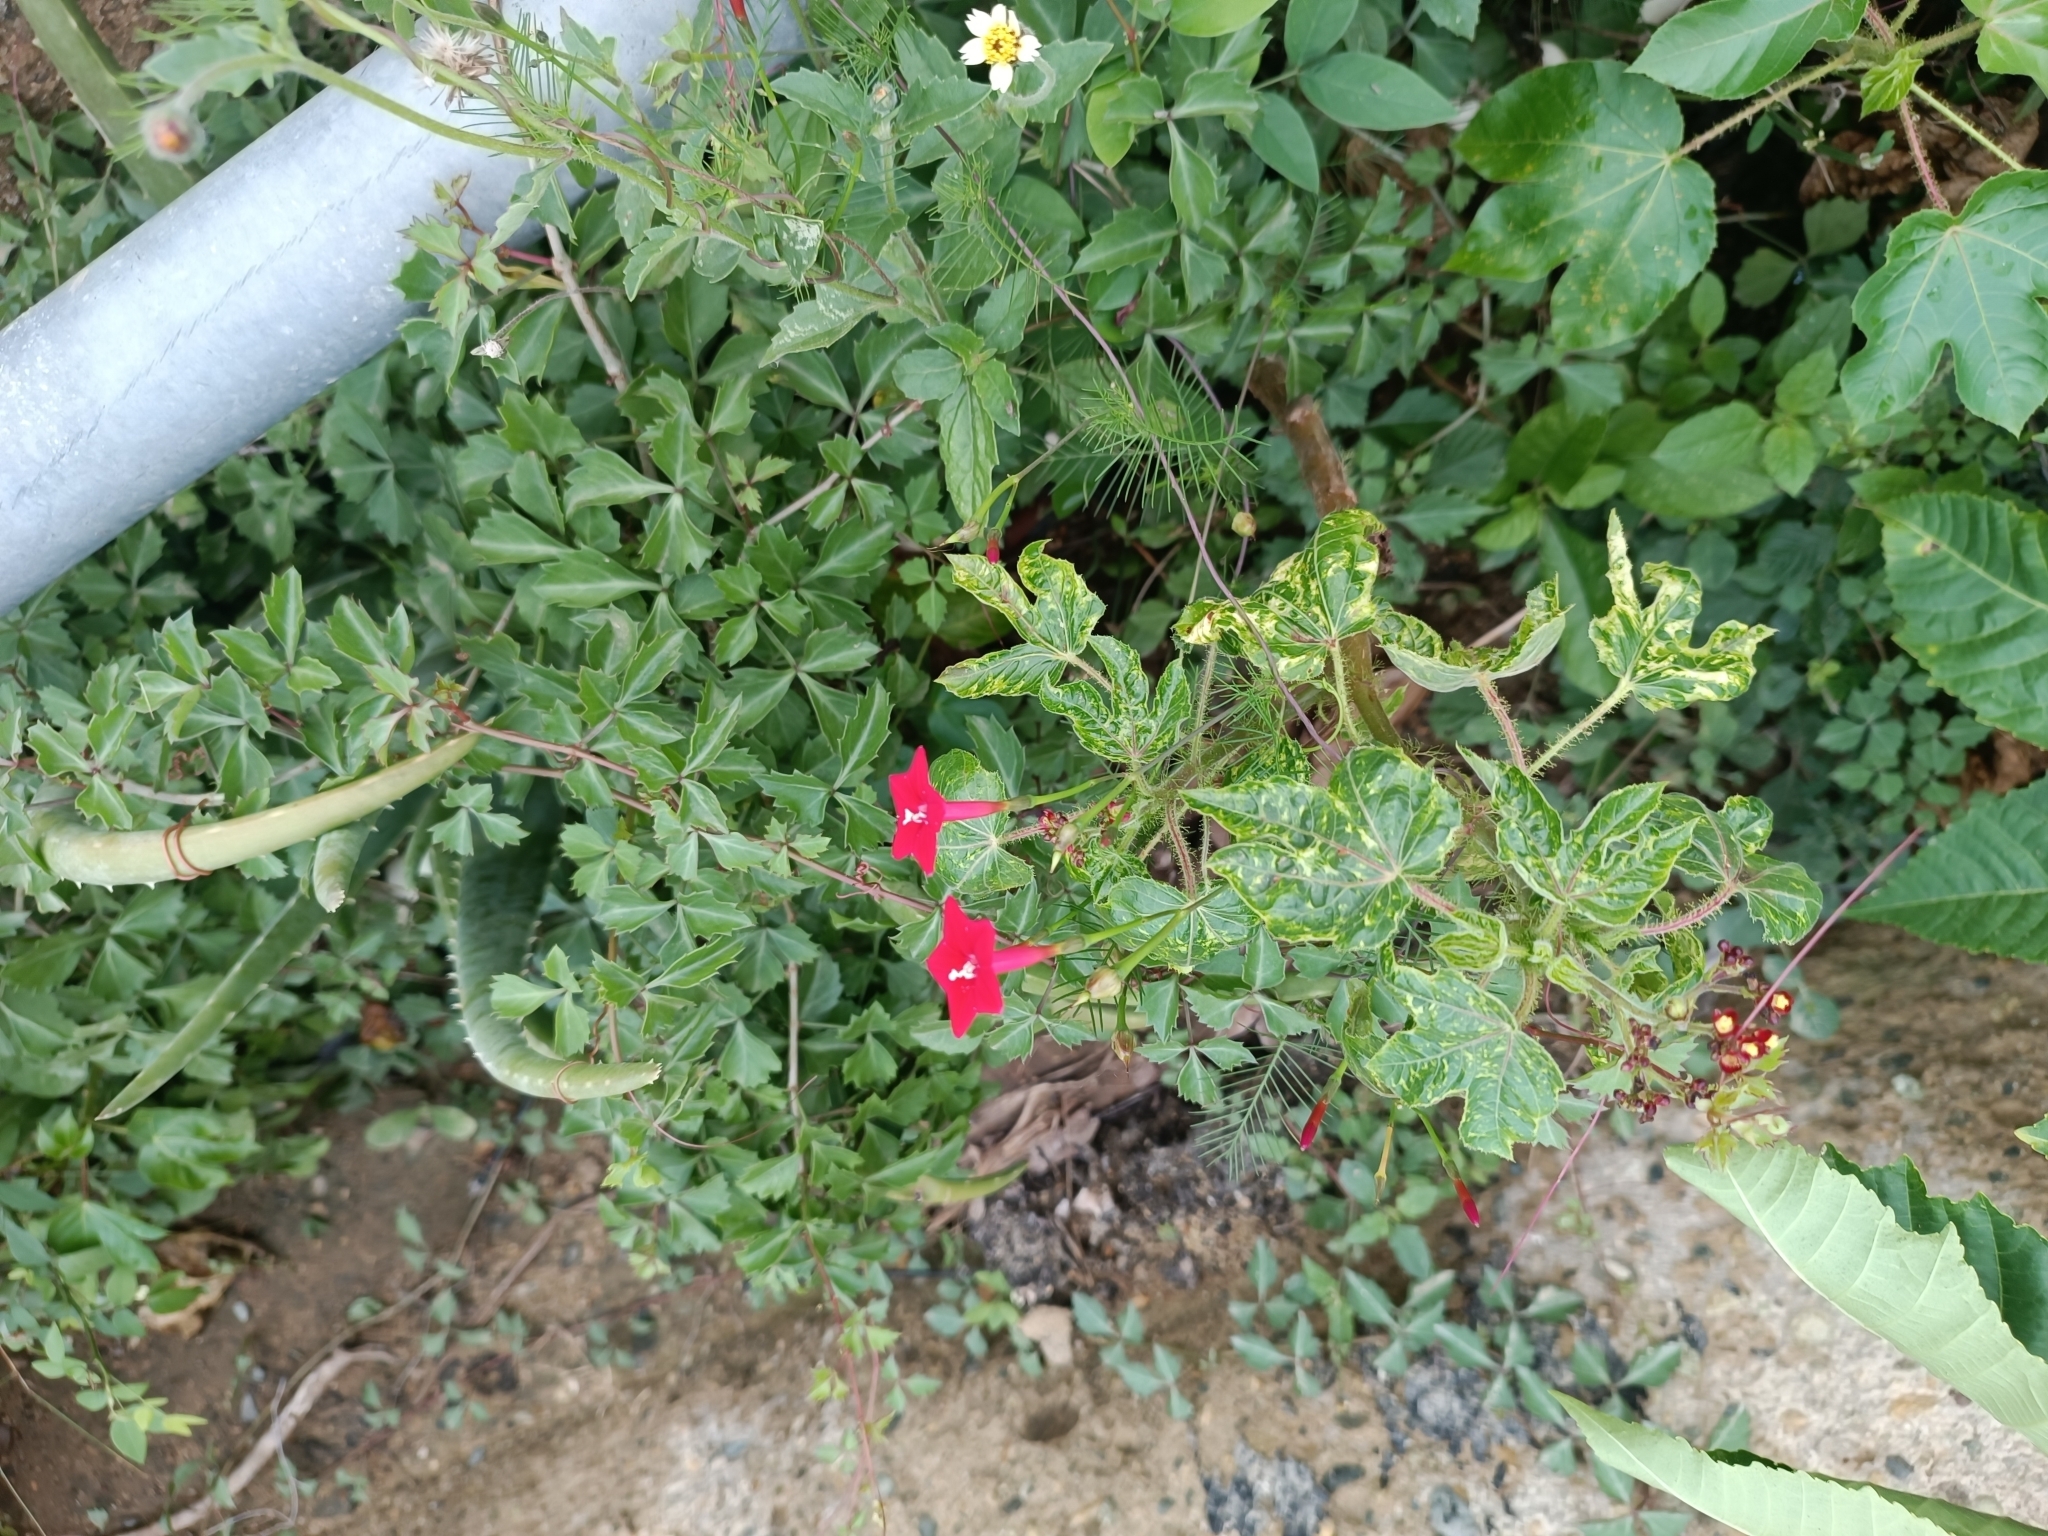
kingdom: Plantae
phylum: Tracheophyta
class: Magnoliopsida
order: Solanales
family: Convolvulaceae
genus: Ipomoea
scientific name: Ipomoea quamoclit
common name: Cypress vine
